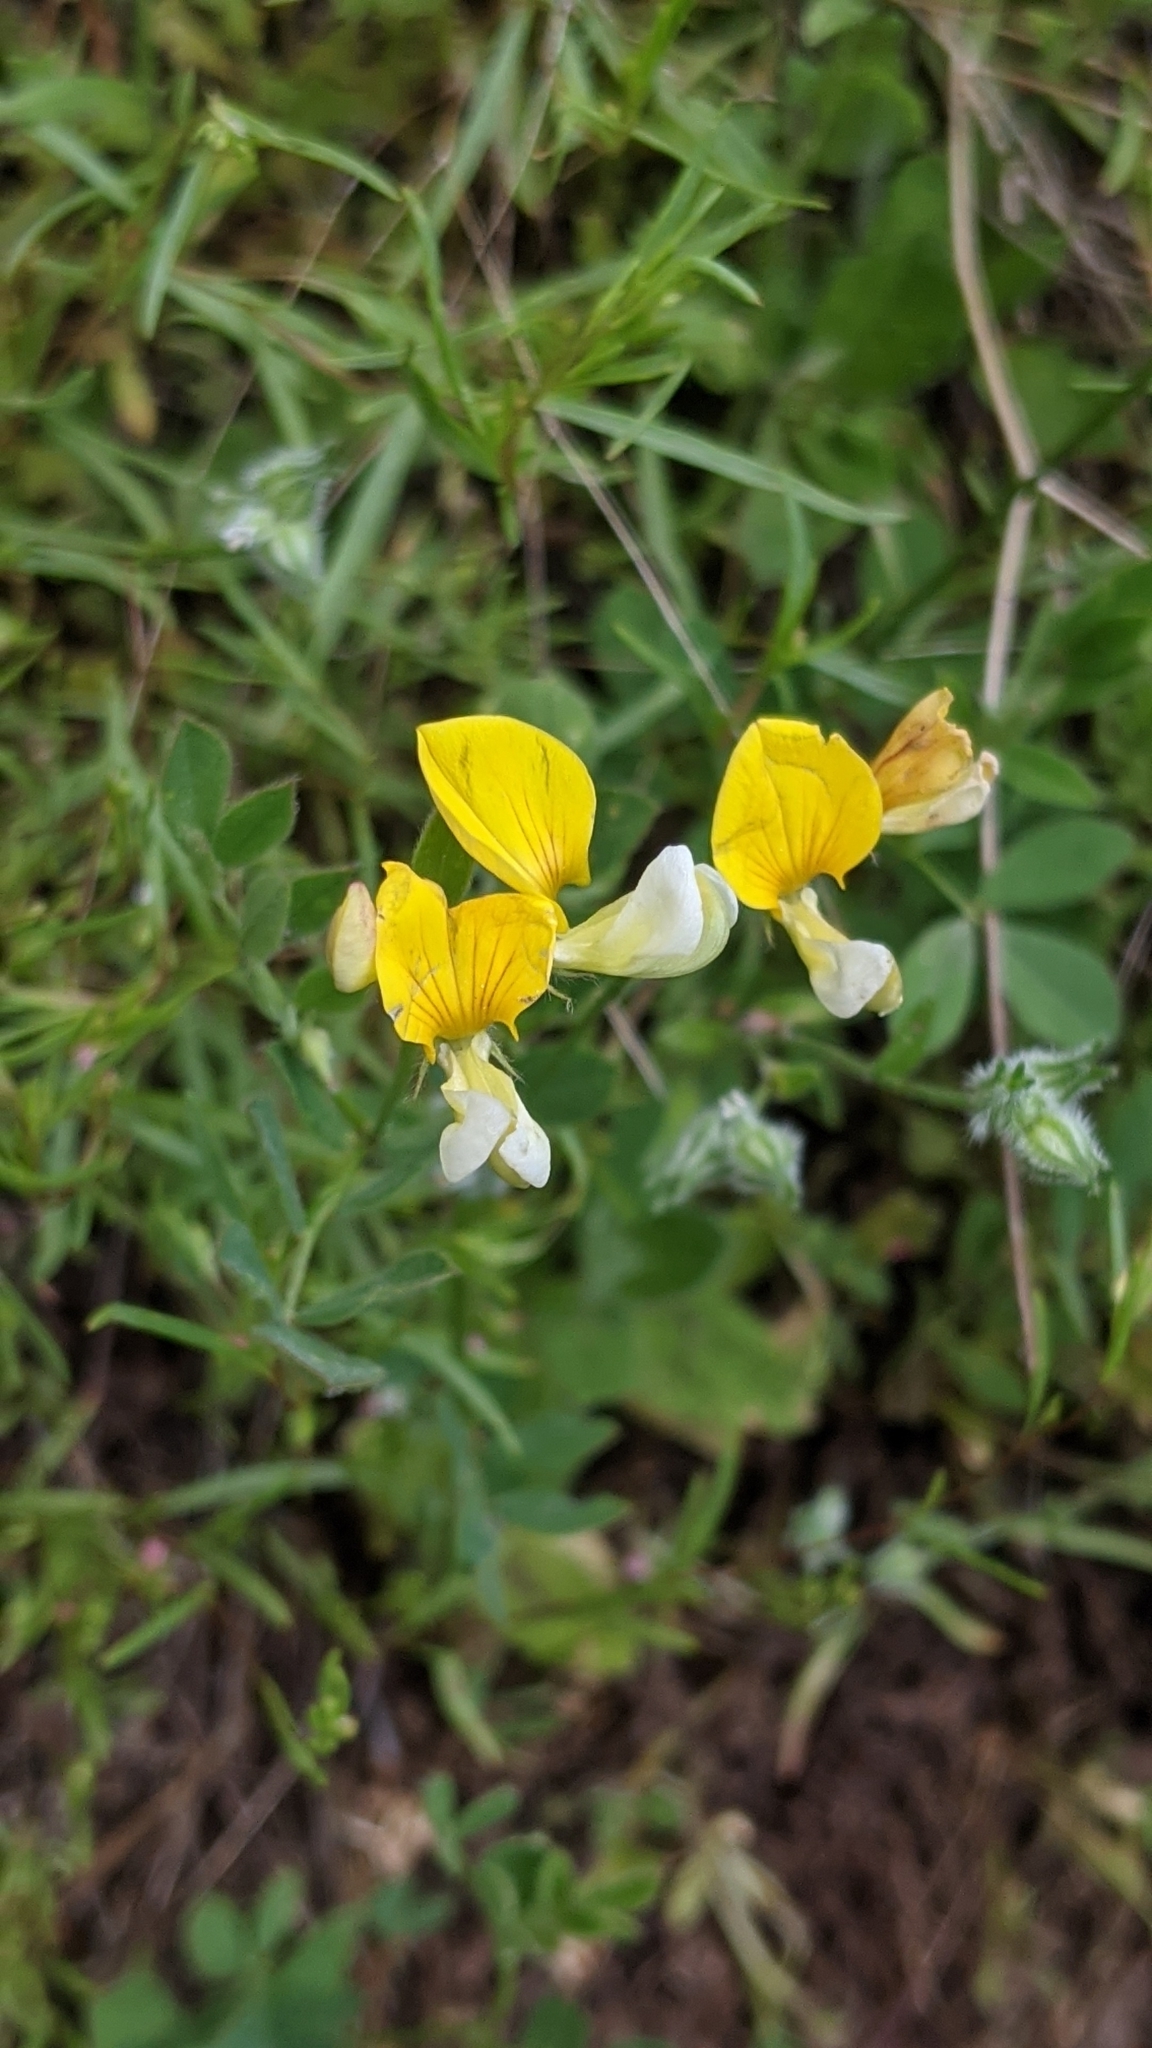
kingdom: Plantae
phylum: Tracheophyta
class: Magnoliopsida
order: Fabales
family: Fabaceae
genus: Hosackia
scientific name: Hosackia oblongifolia
